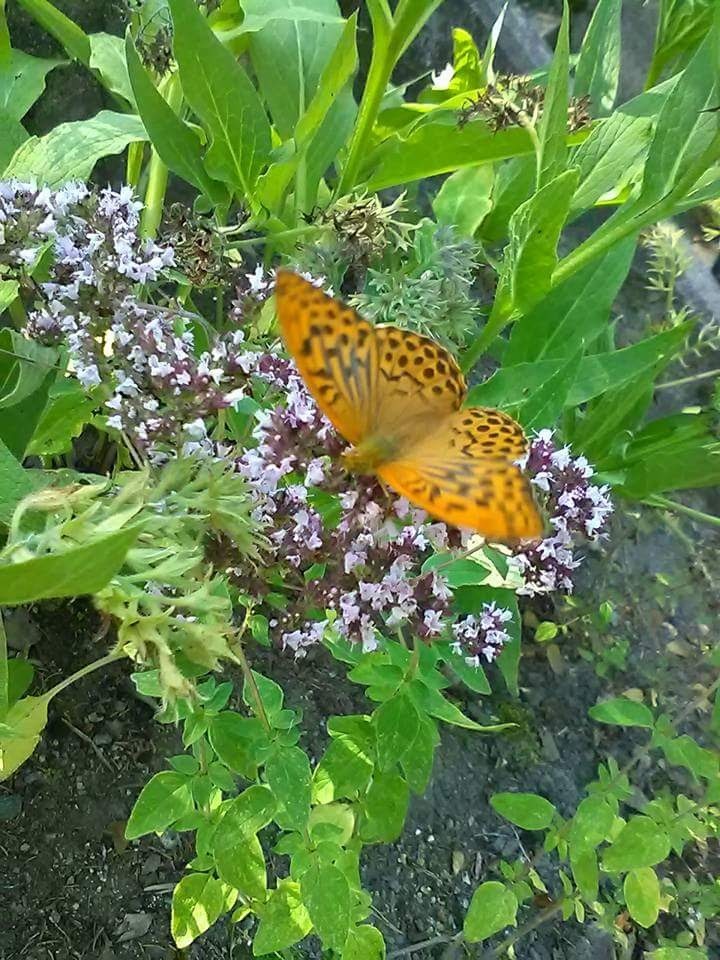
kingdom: Animalia
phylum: Arthropoda
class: Insecta
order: Lepidoptera
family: Nymphalidae
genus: Argynnis
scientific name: Argynnis paphia
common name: Silver-washed fritillary
